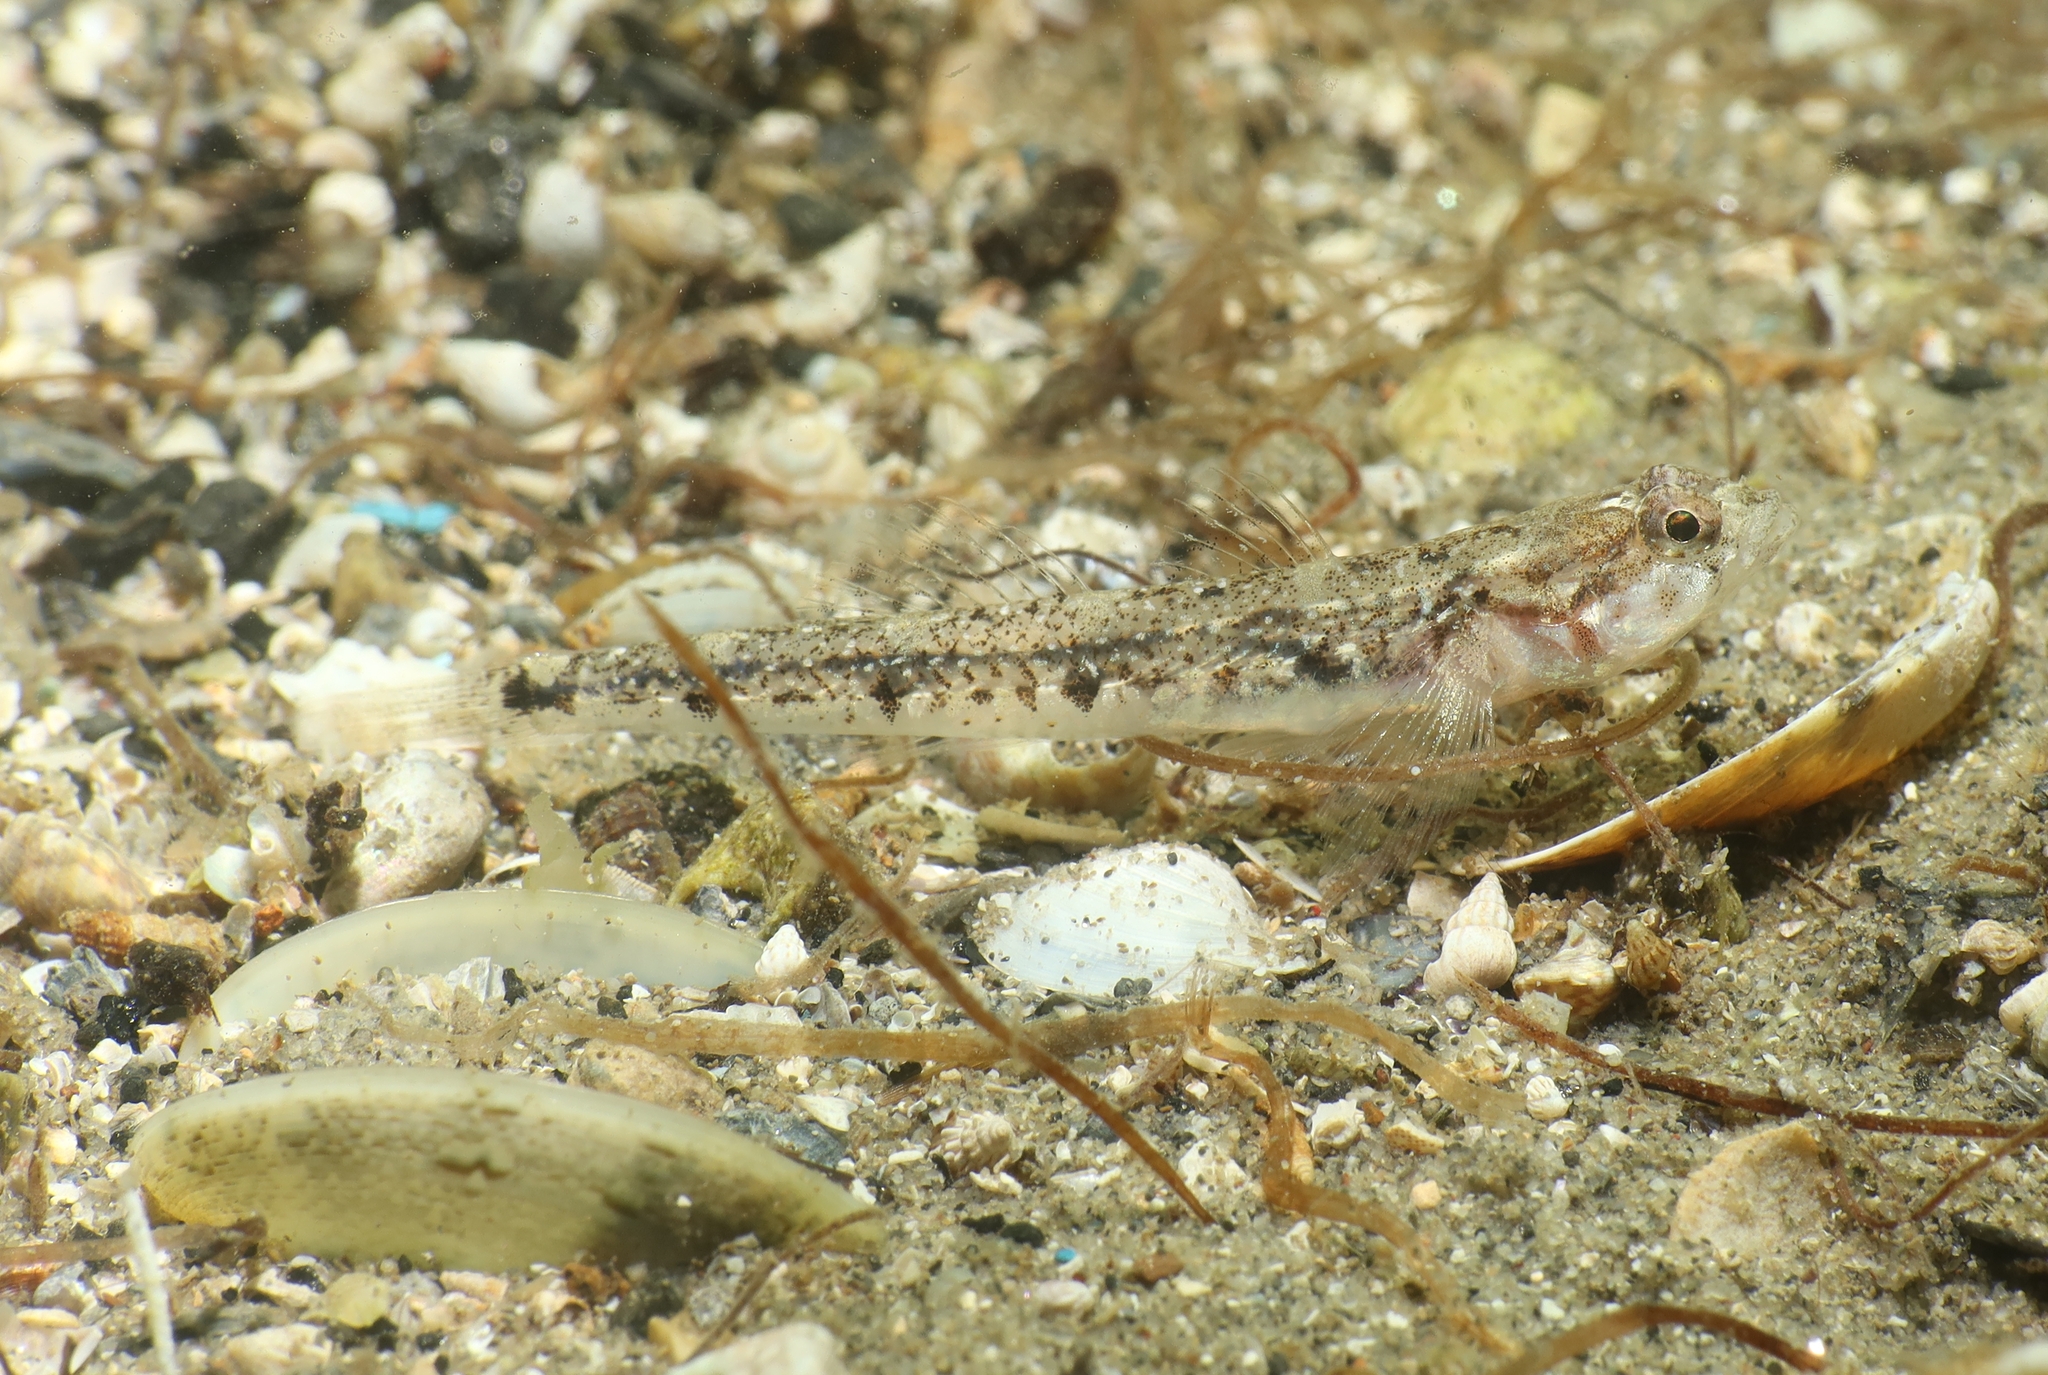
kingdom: Animalia
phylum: Chordata
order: Perciformes
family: Gobiidae
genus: Pomatoschistus
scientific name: Pomatoschistus bathi
